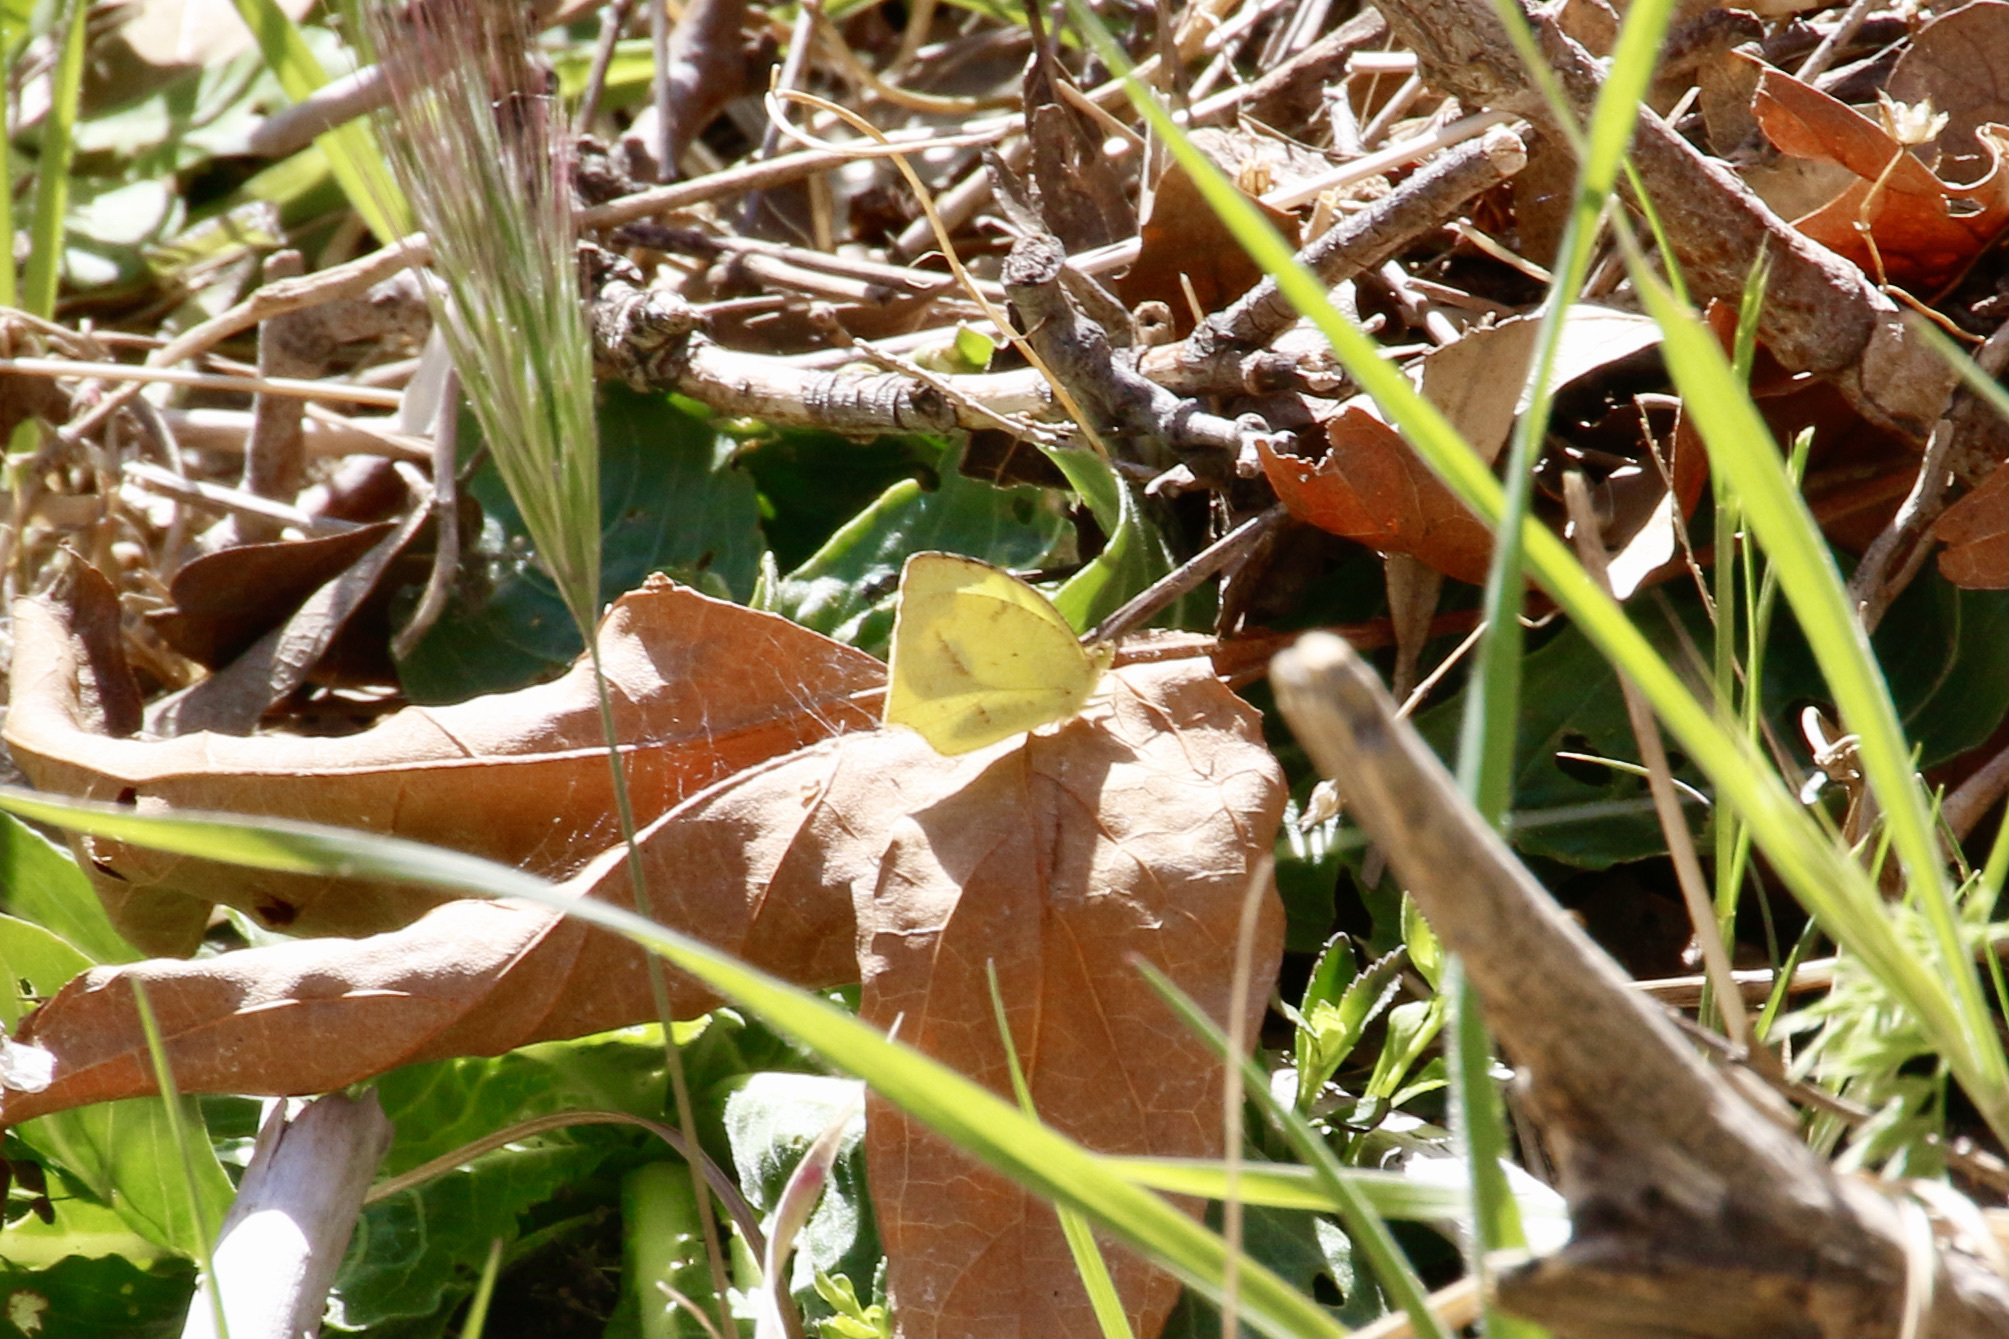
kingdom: Animalia
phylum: Arthropoda
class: Insecta
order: Lepidoptera
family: Pieridae
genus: Abaeis
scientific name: Abaeis mexicana
